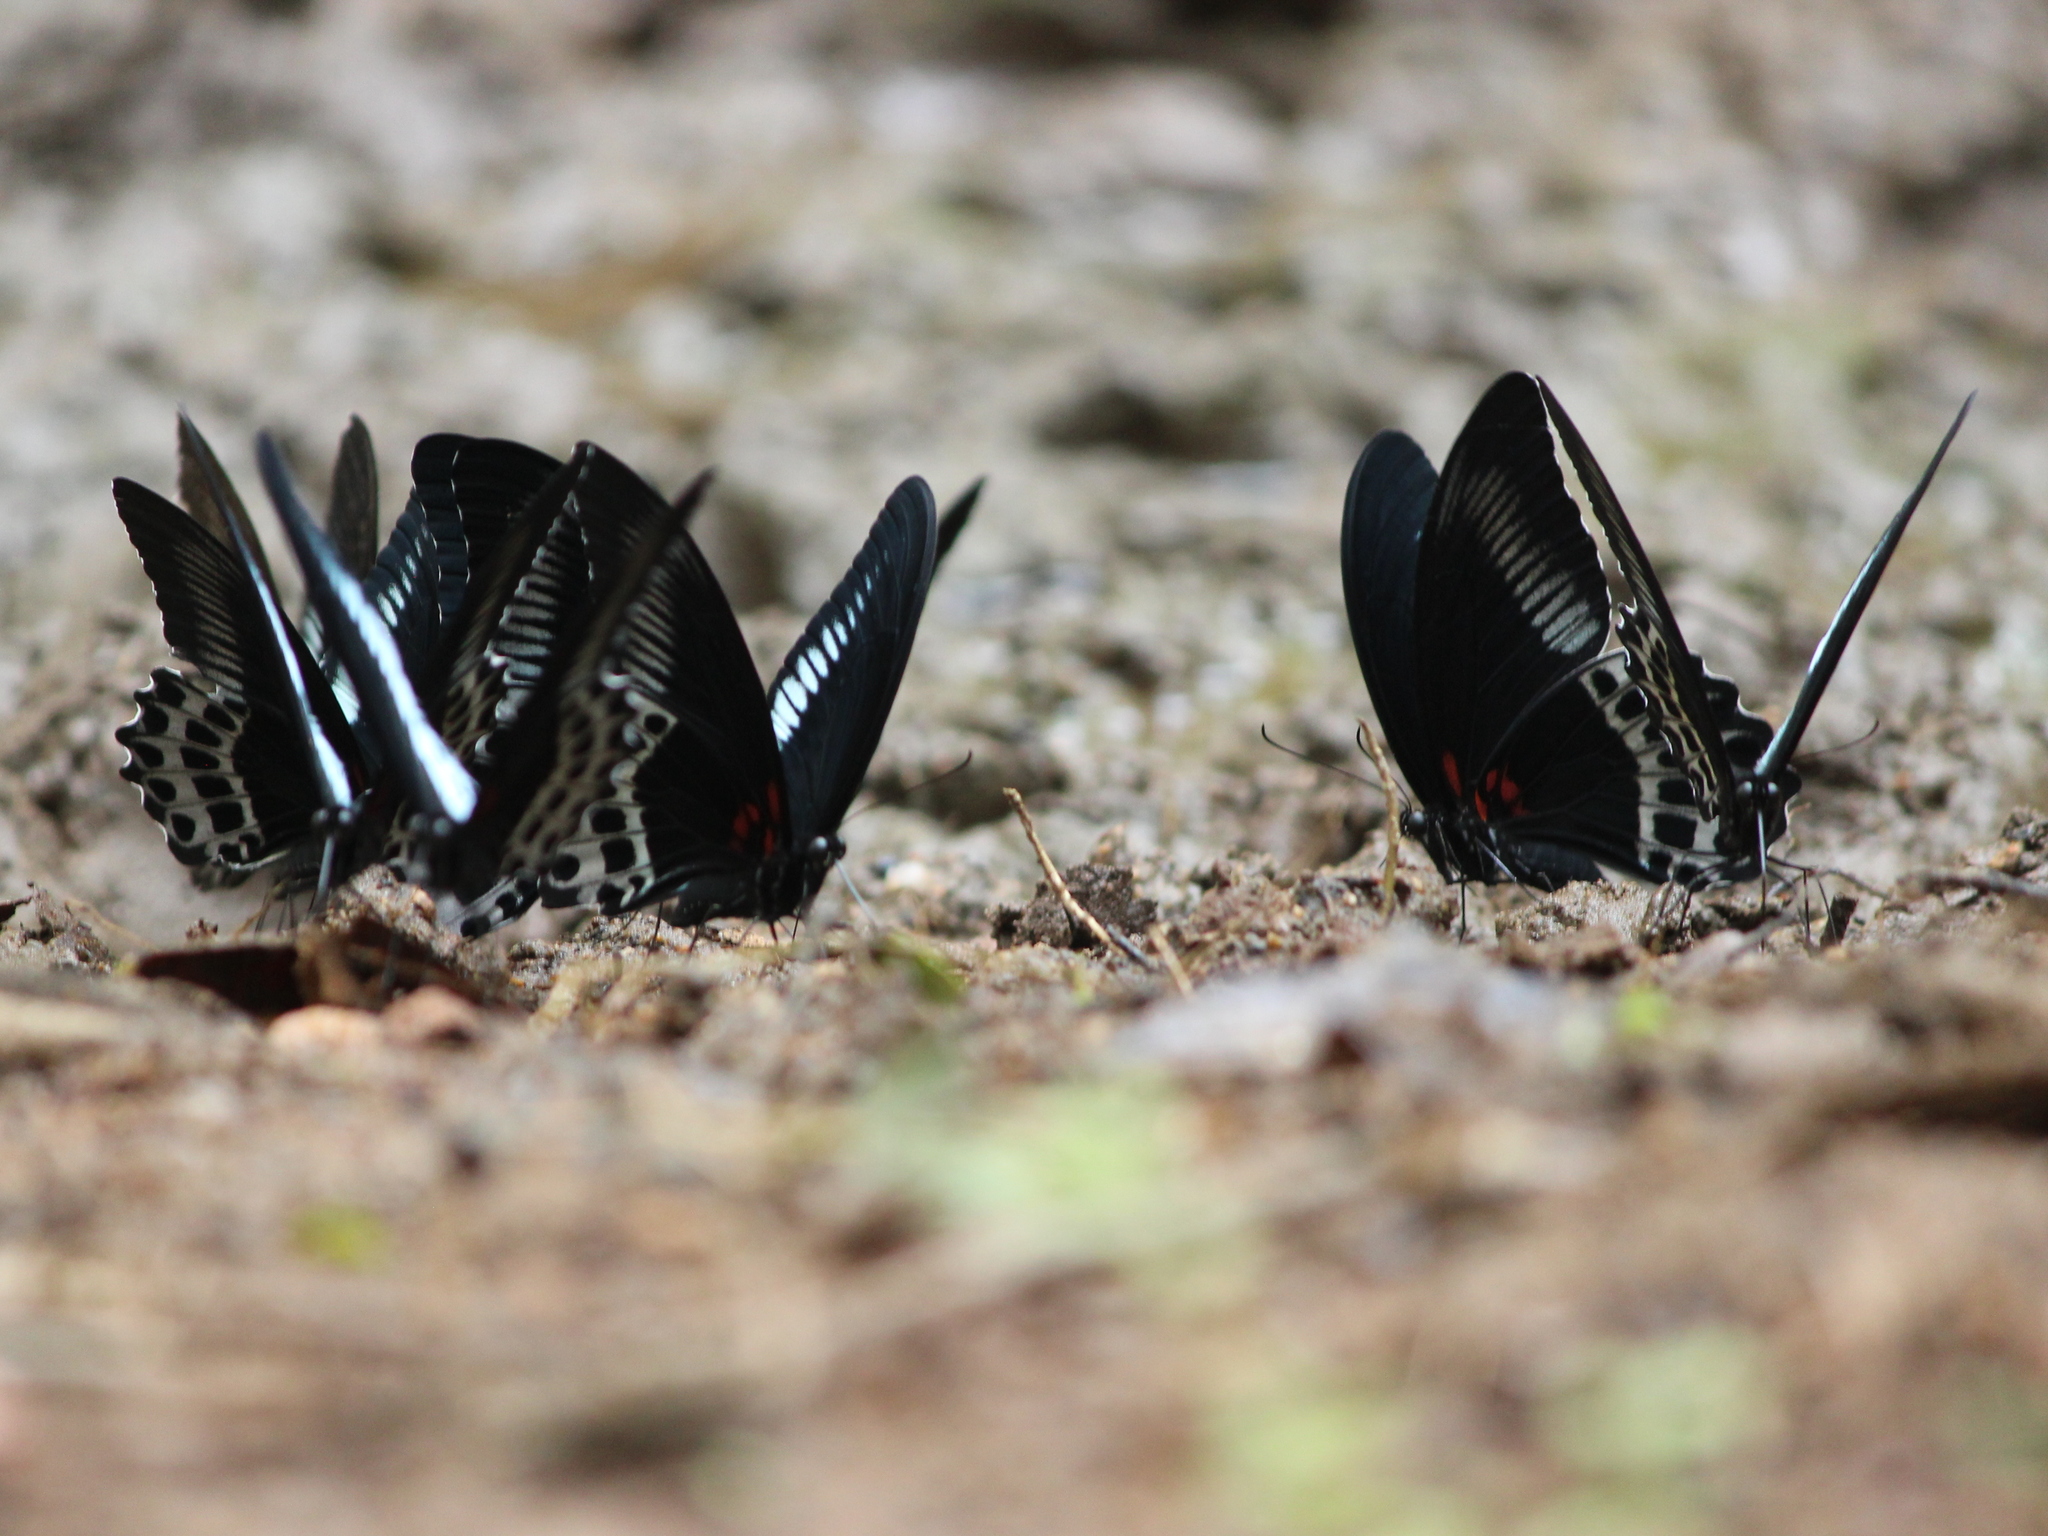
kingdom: Animalia
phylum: Arthropoda
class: Insecta
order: Lepidoptera
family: Papilionidae
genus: Papilio
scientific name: Papilio memnon
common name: Great mormon
